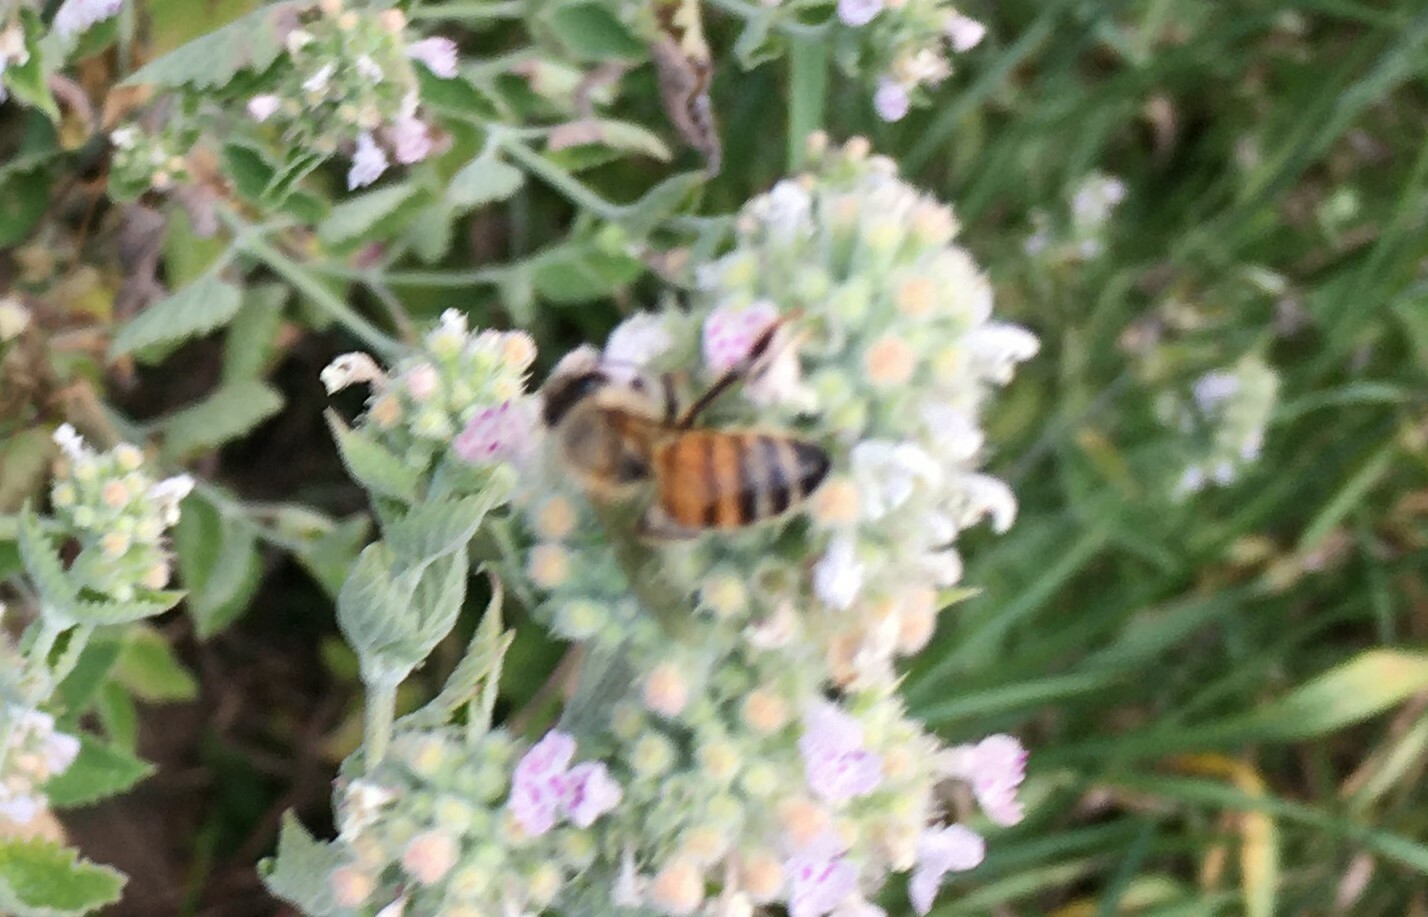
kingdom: Animalia
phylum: Arthropoda
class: Insecta
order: Hymenoptera
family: Apidae
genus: Apis
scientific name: Apis mellifera
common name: Honey bee
